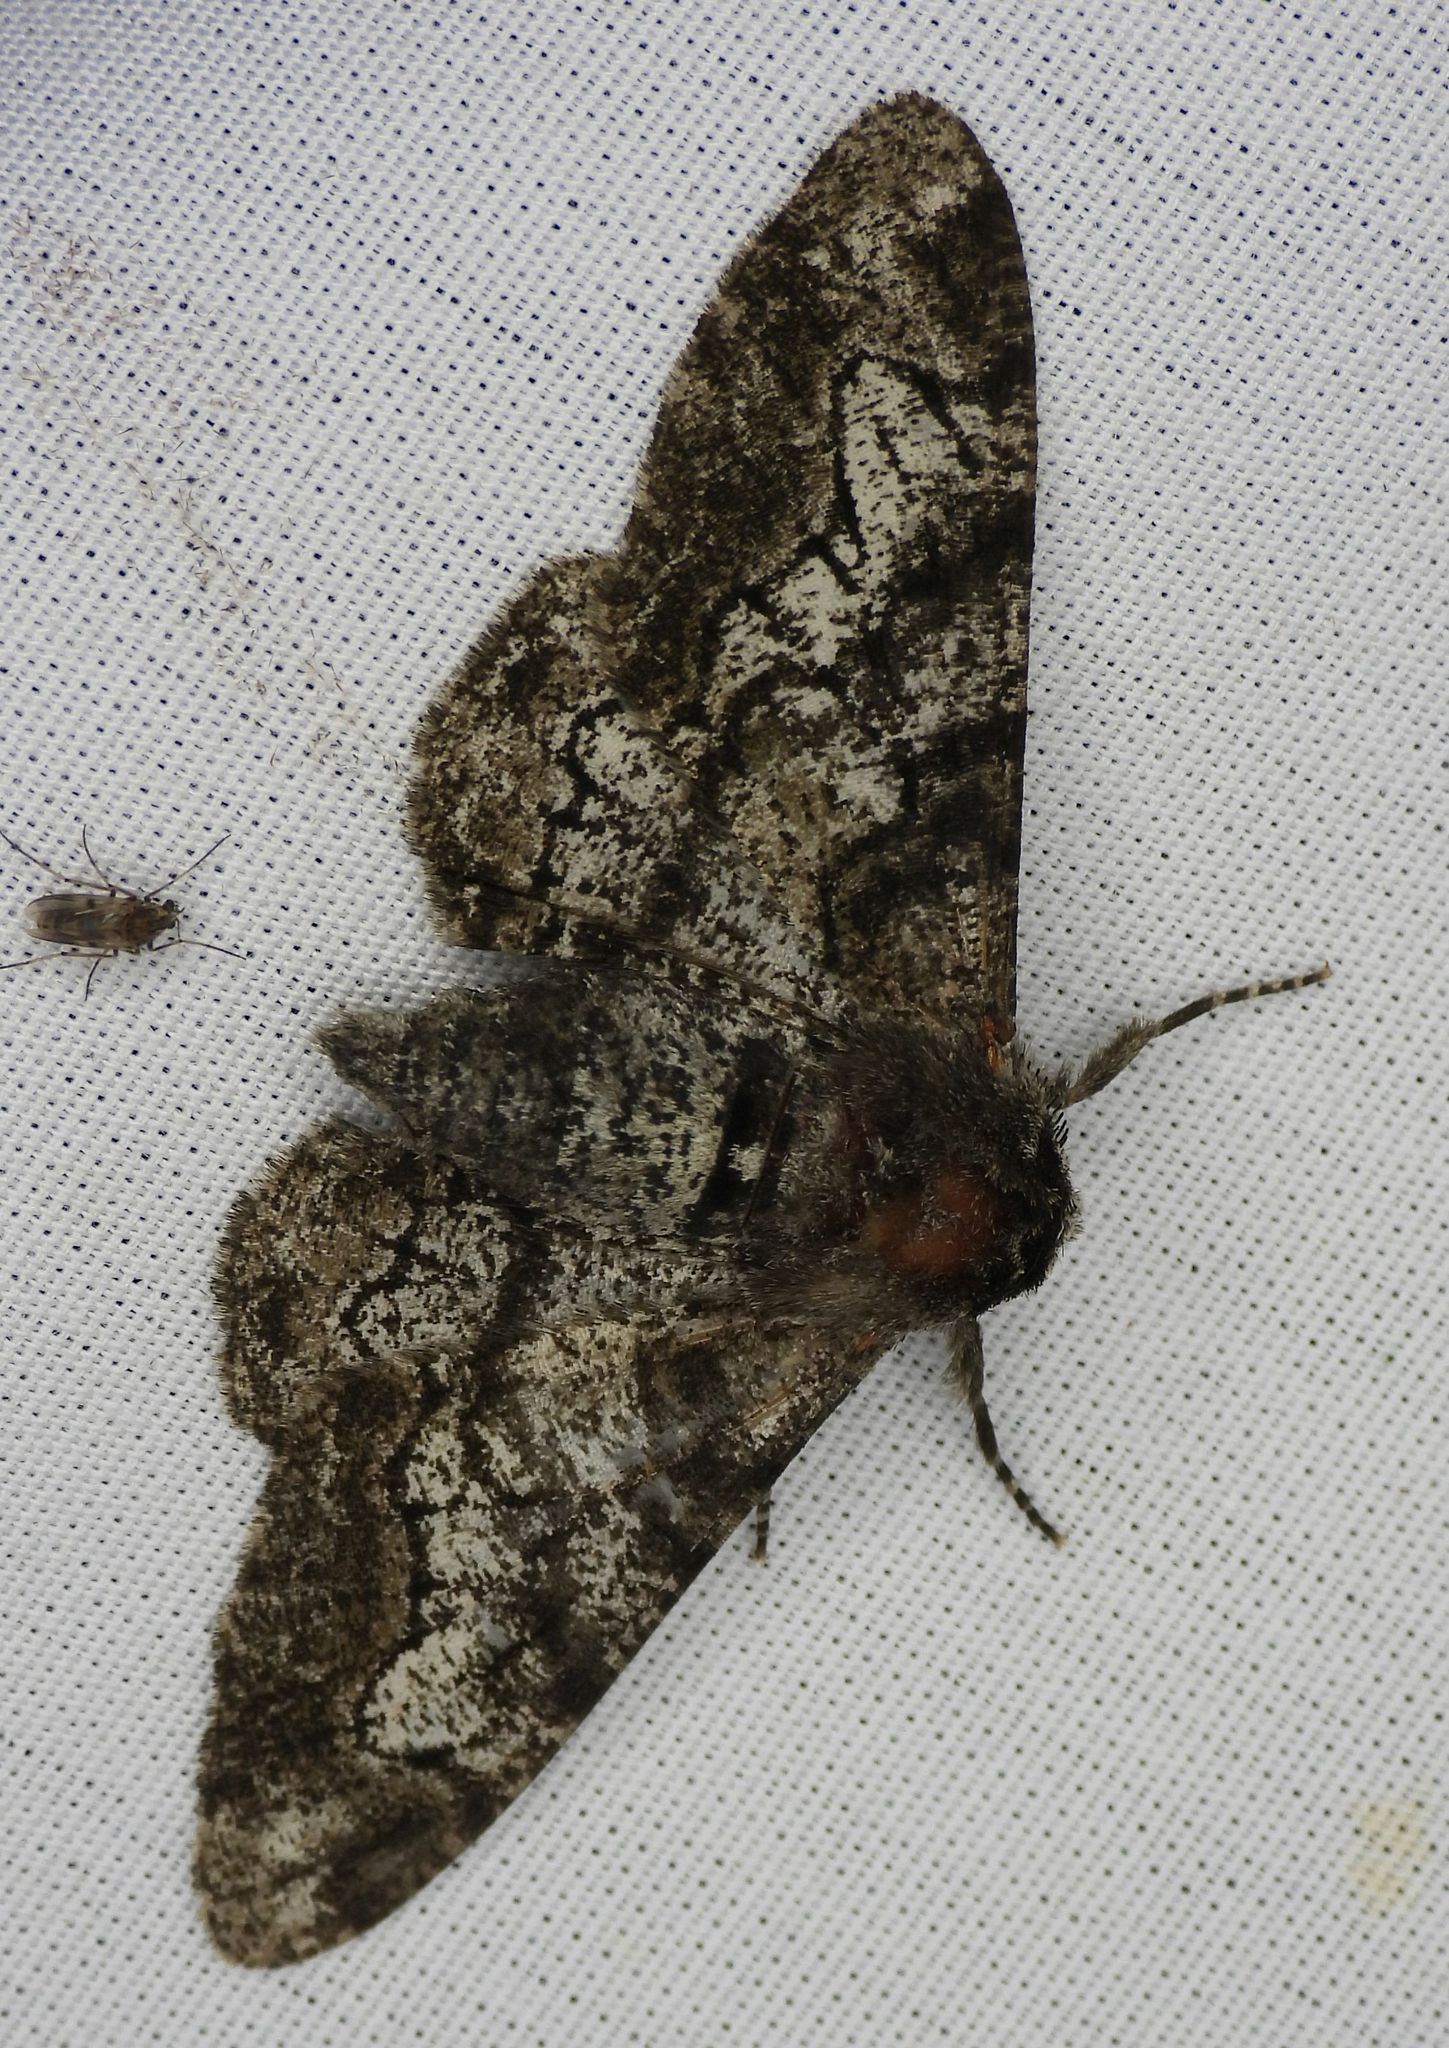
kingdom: Animalia
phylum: Arthropoda
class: Insecta
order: Lepidoptera
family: Geometridae
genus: Biston
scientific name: Biston betularia
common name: Peppered moth
